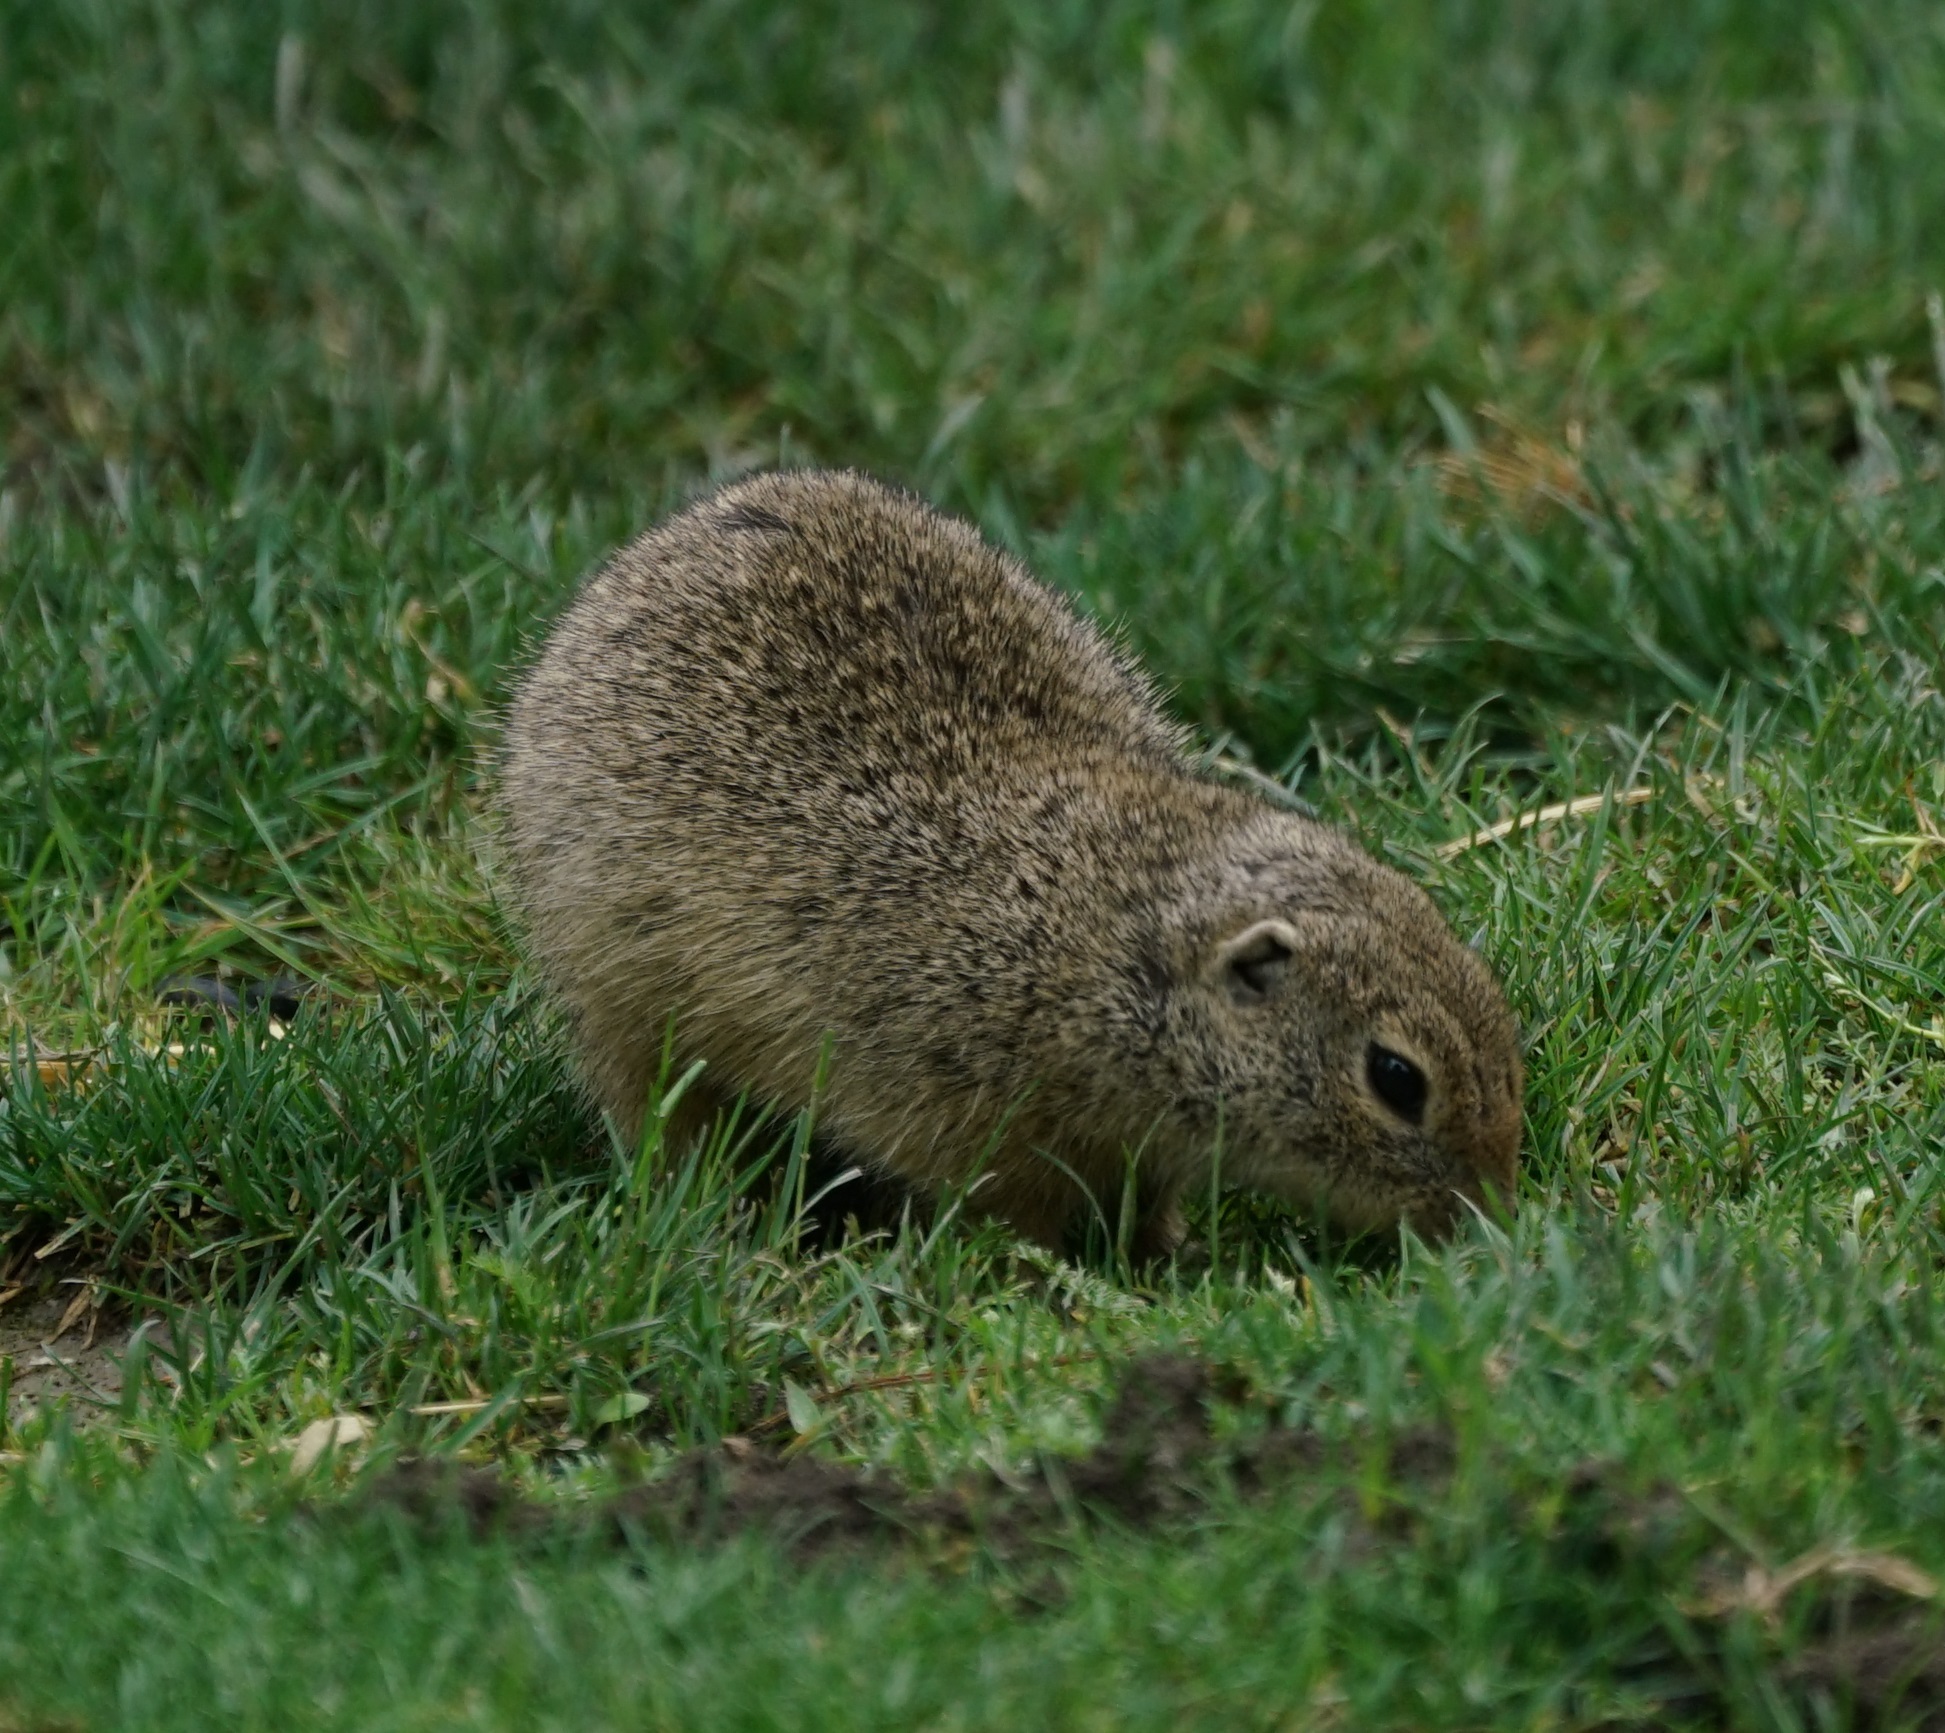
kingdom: Animalia
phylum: Chordata
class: Mammalia
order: Rodentia
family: Sciuridae
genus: Spermophilus
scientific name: Spermophilus citellus
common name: European ground squirrel
